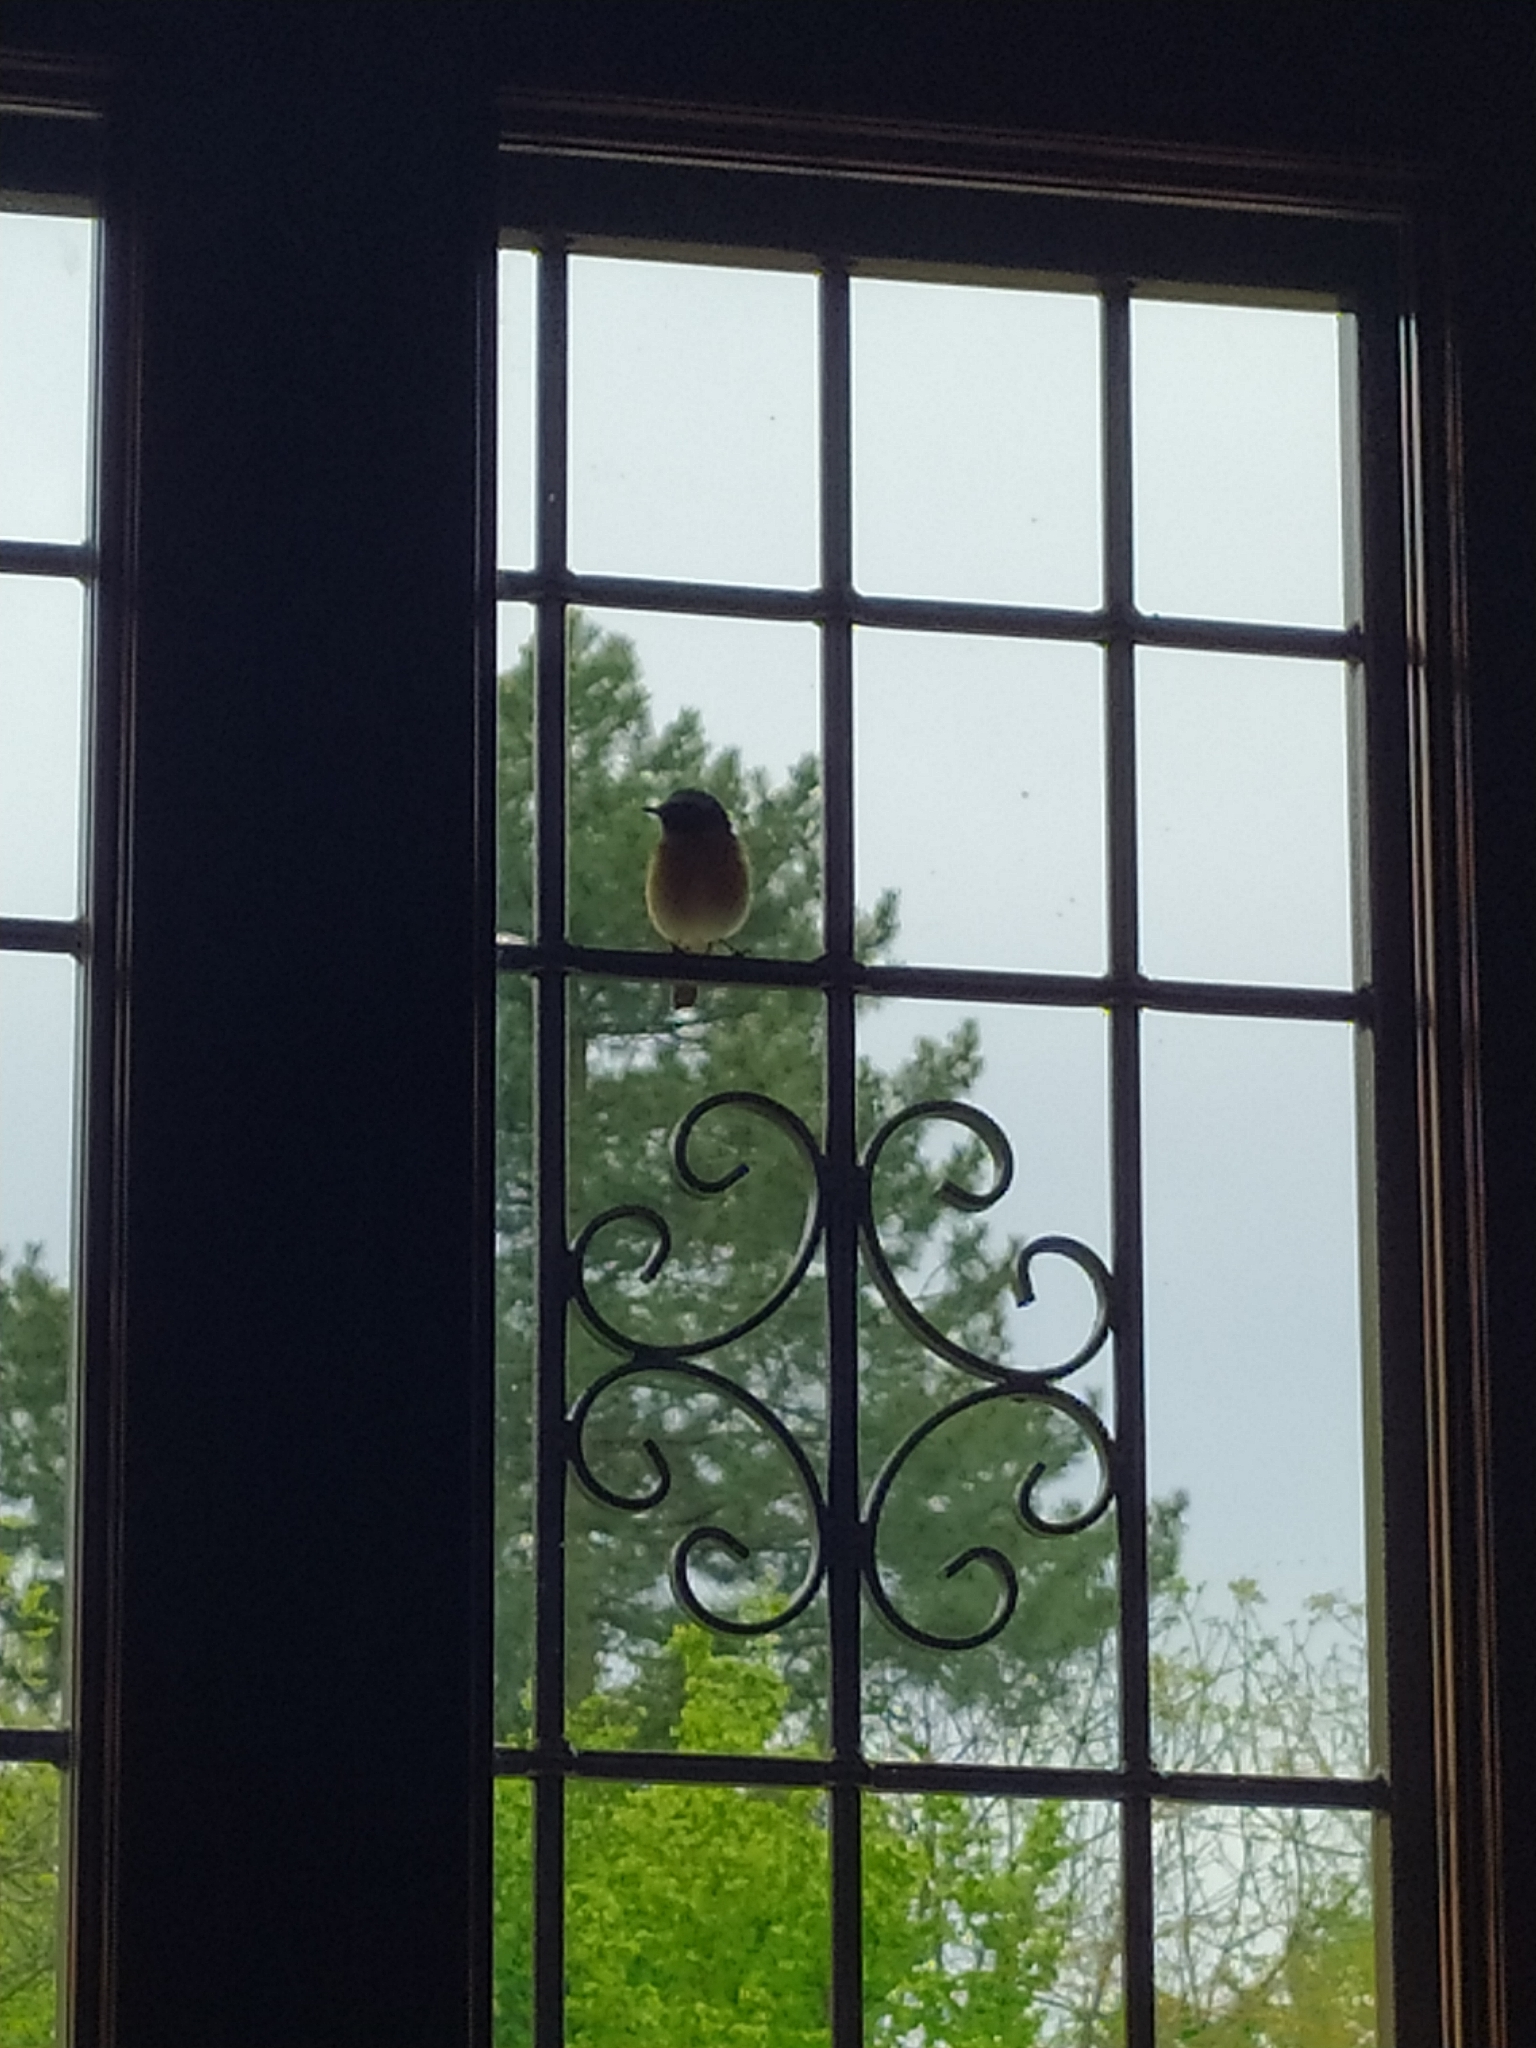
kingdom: Animalia
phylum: Chordata
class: Aves
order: Passeriformes
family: Muscicapidae
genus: Phoenicurus
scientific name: Phoenicurus phoenicurus
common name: Common redstart
